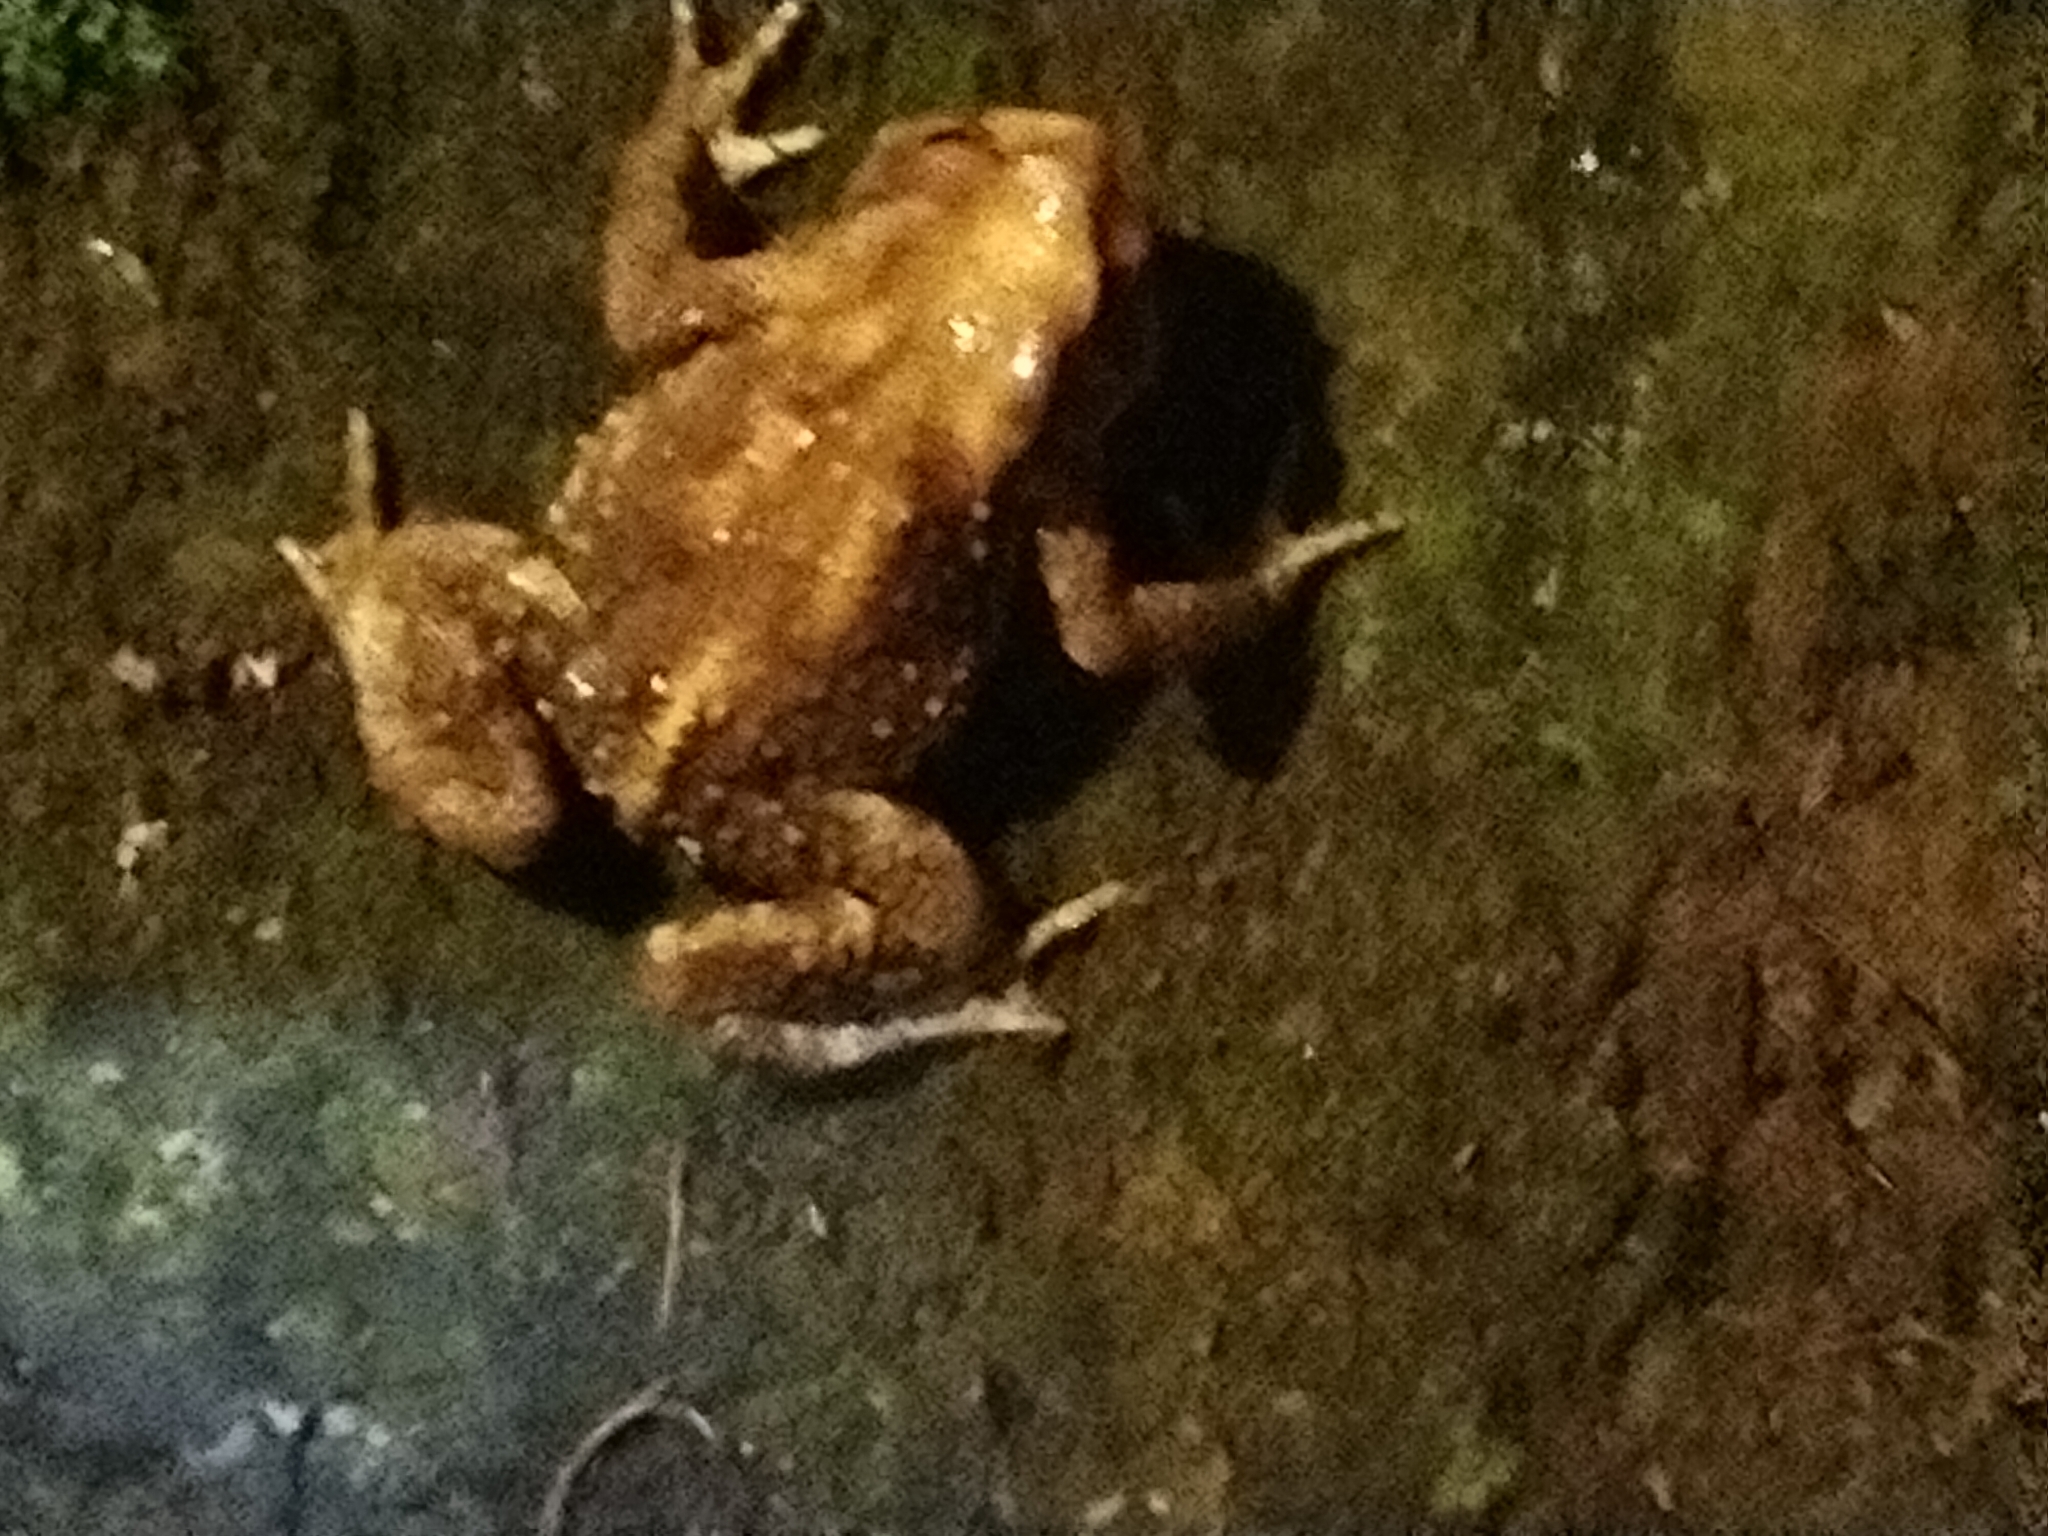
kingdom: Animalia
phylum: Chordata
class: Amphibia
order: Anura
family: Bufonidae
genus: Bufo
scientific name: Bufo bankorensis
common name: Bankor toad
